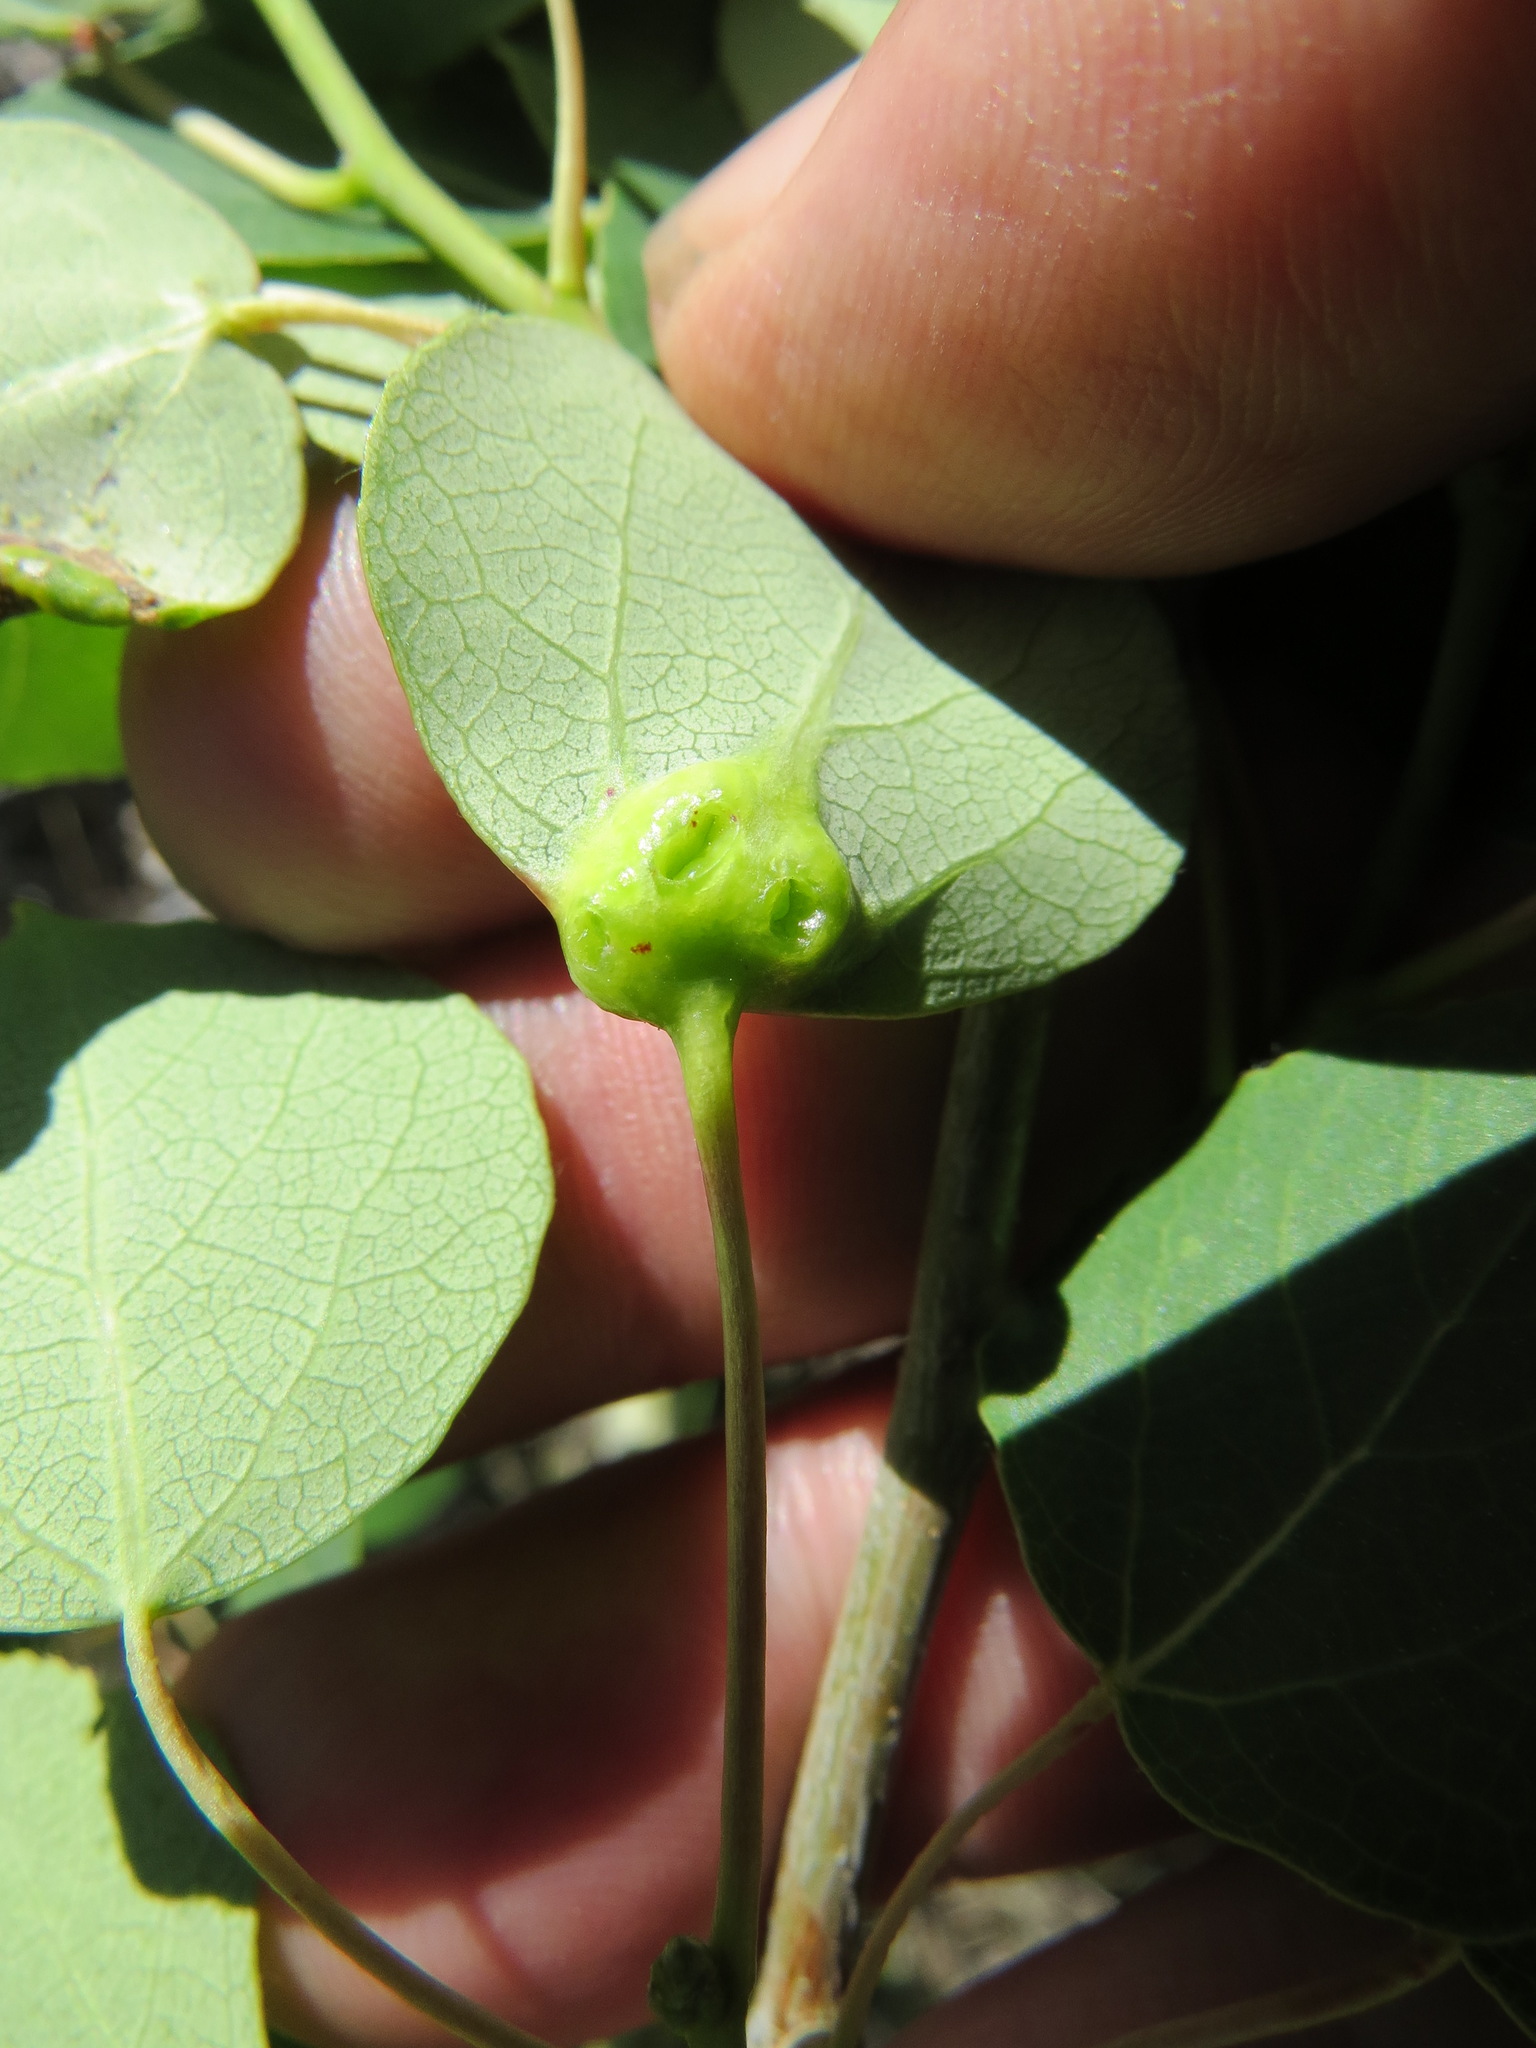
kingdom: Animalia
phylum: Arthropoda
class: Insecta
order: Diptera
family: Cecidomyiidae
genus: Harmandiola
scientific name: Harmandiola
